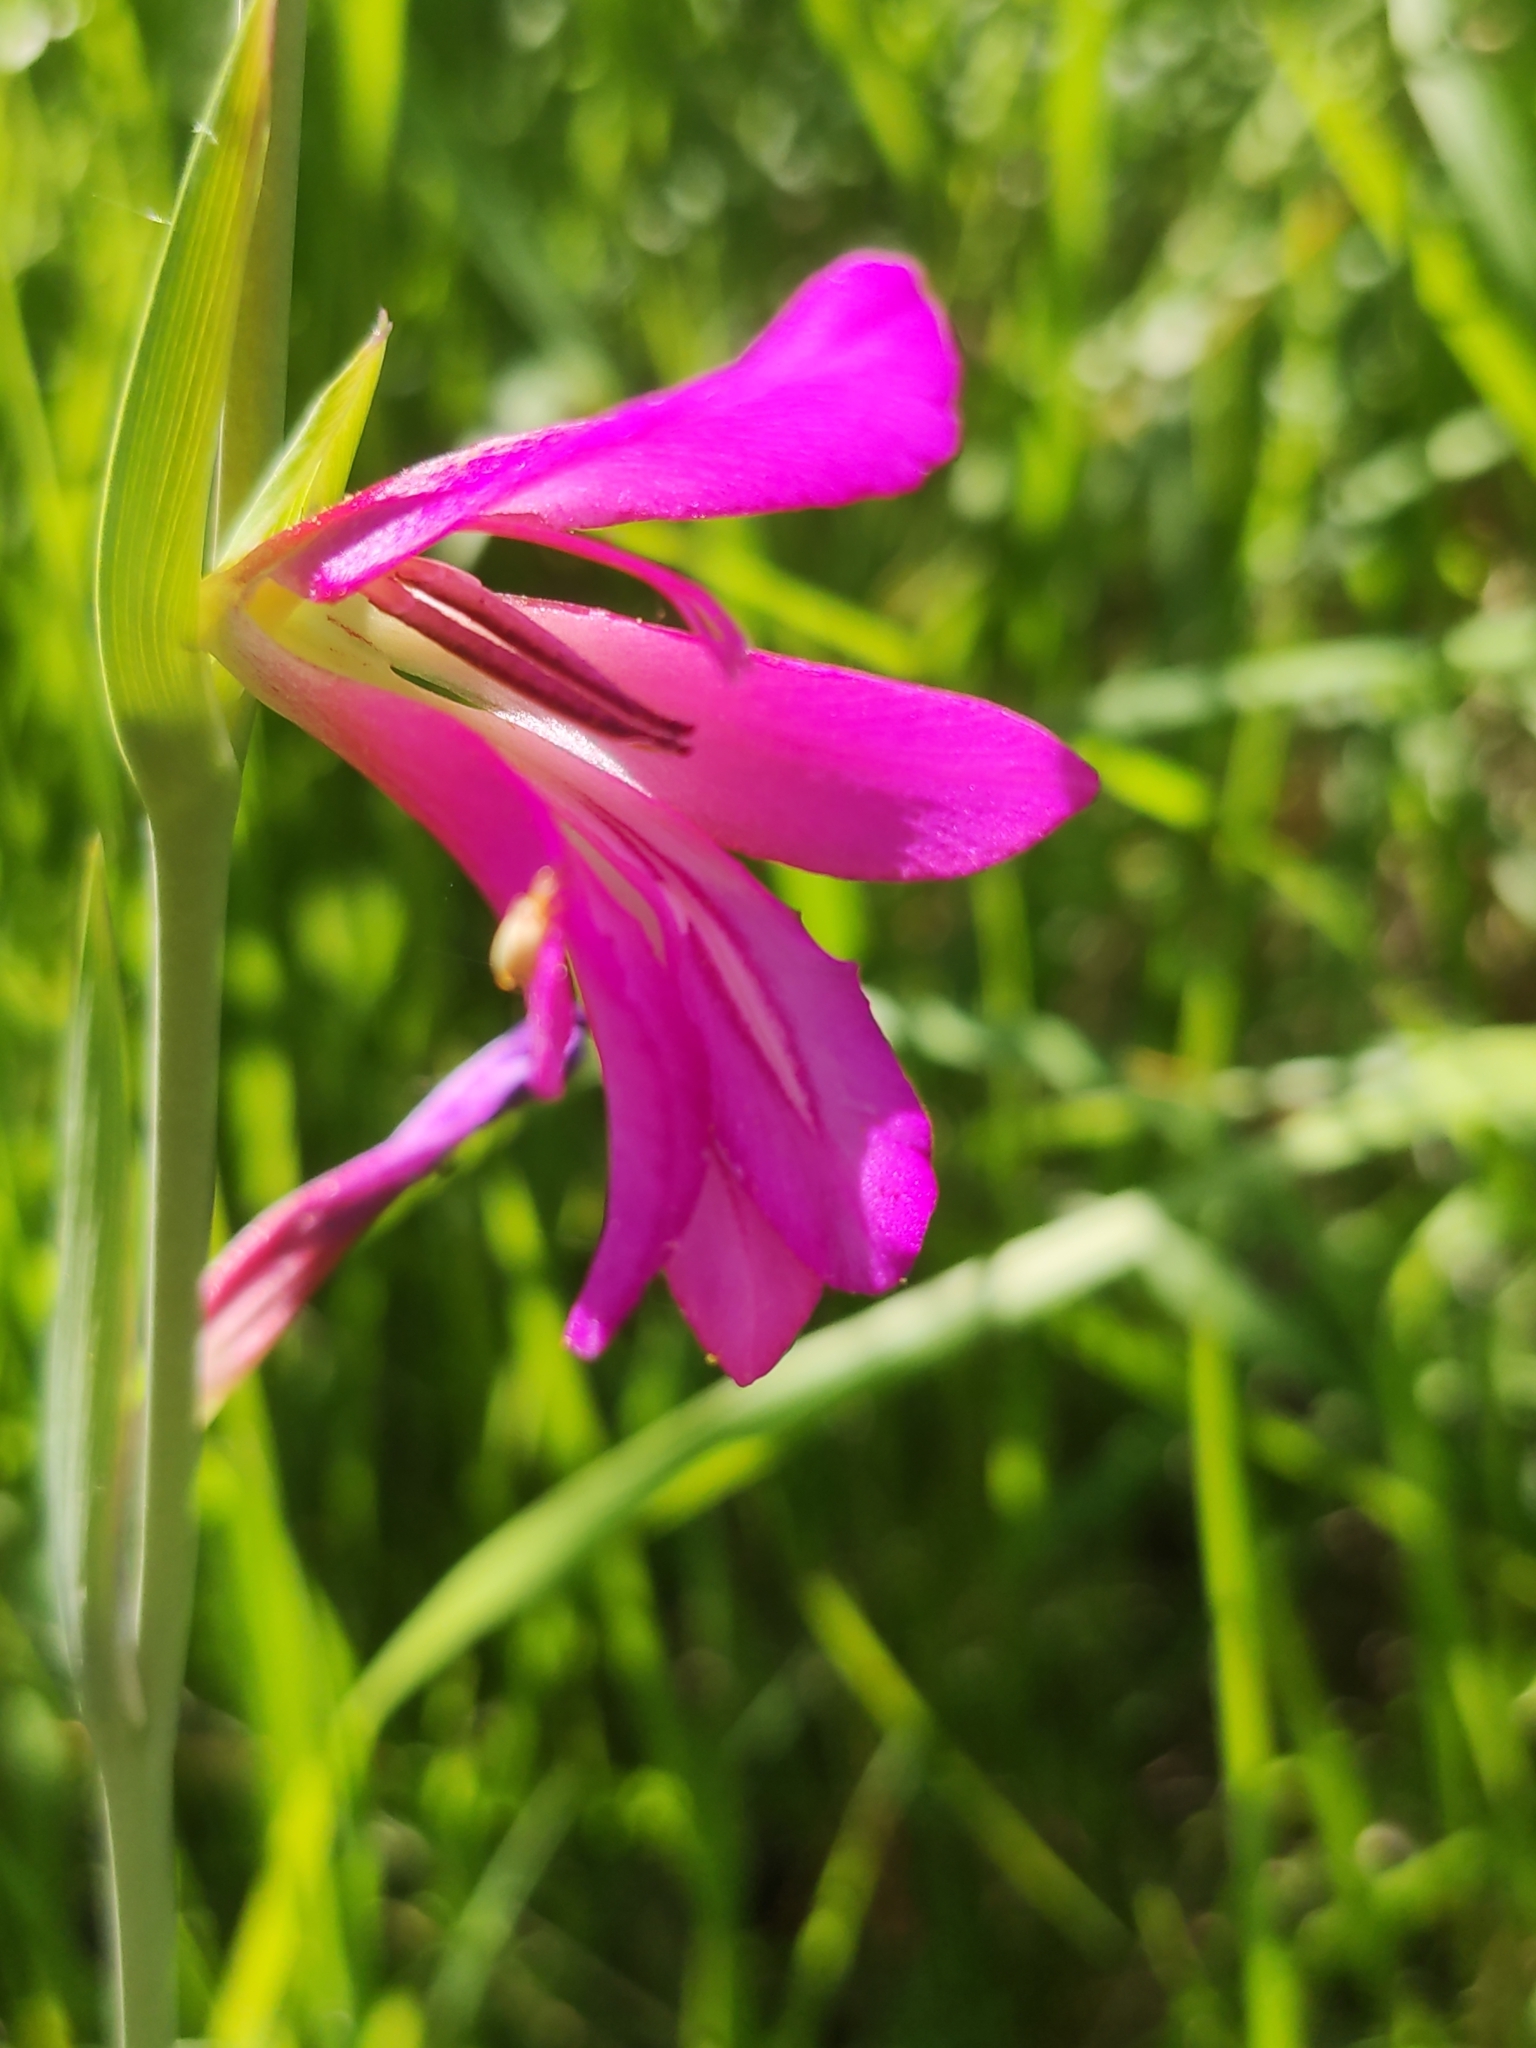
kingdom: Plantae
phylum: Tracheophyta
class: Liliopsida
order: Asparagales
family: Iridaceae
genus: Gladiolus
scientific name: Gladiolus italicus
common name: Field gladiolus
